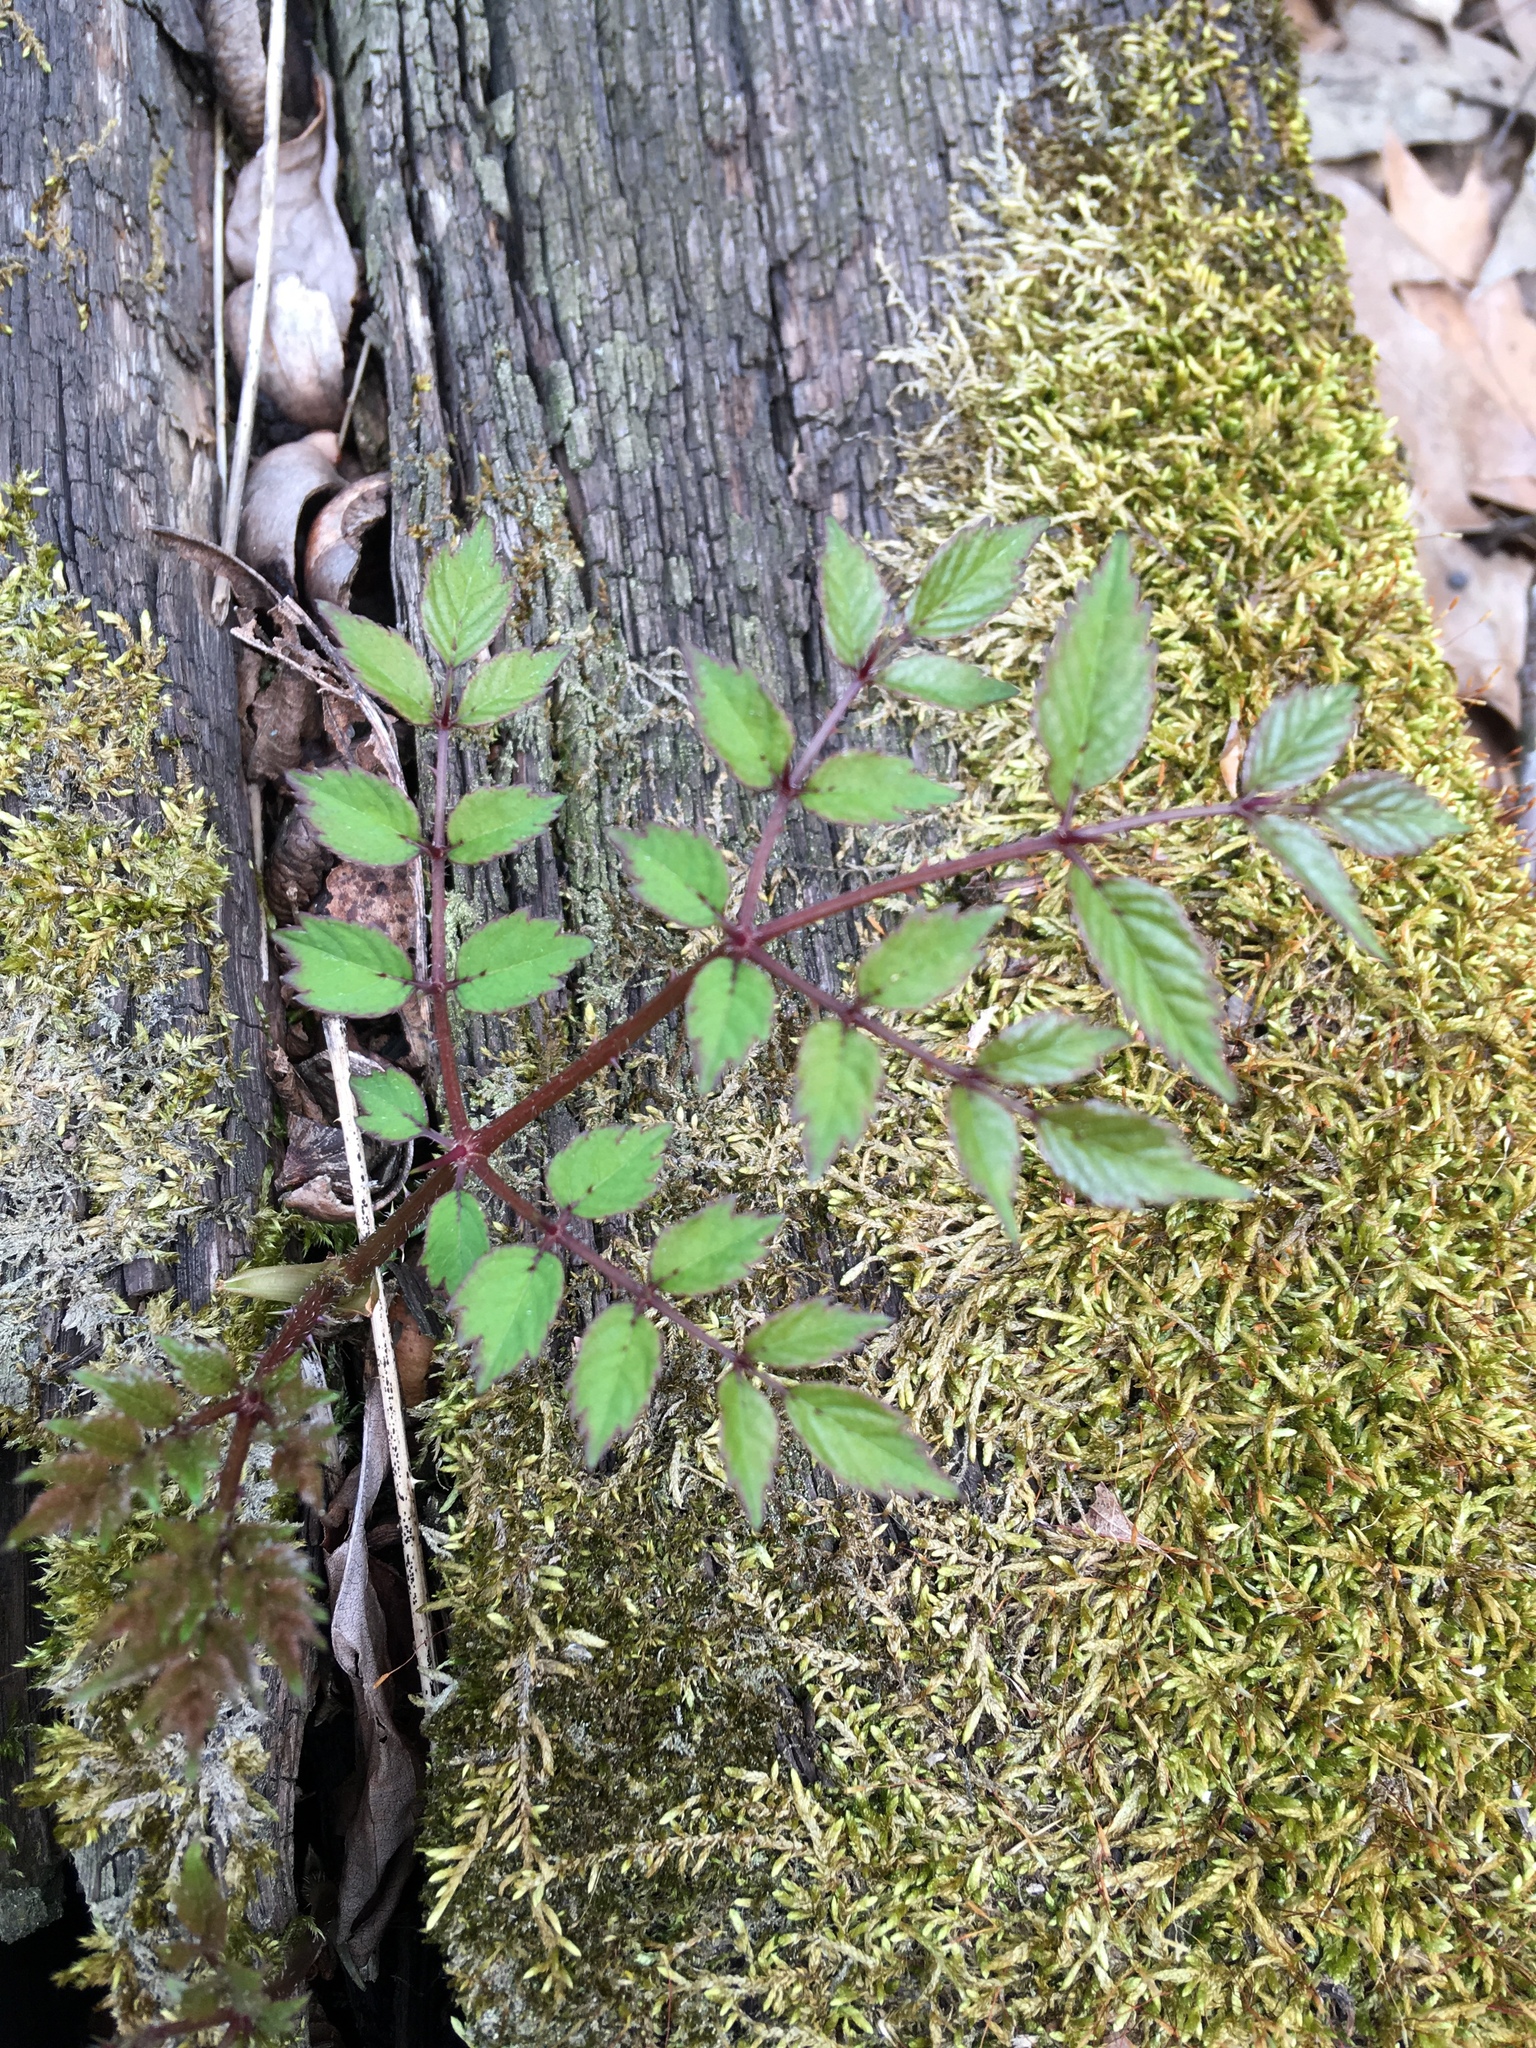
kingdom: Plantae
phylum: Tracheophyta
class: Magnoliopsida
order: Apiales
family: Araliaceae
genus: Aralia
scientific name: Aralia elata
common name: Japanese angelica-tree
